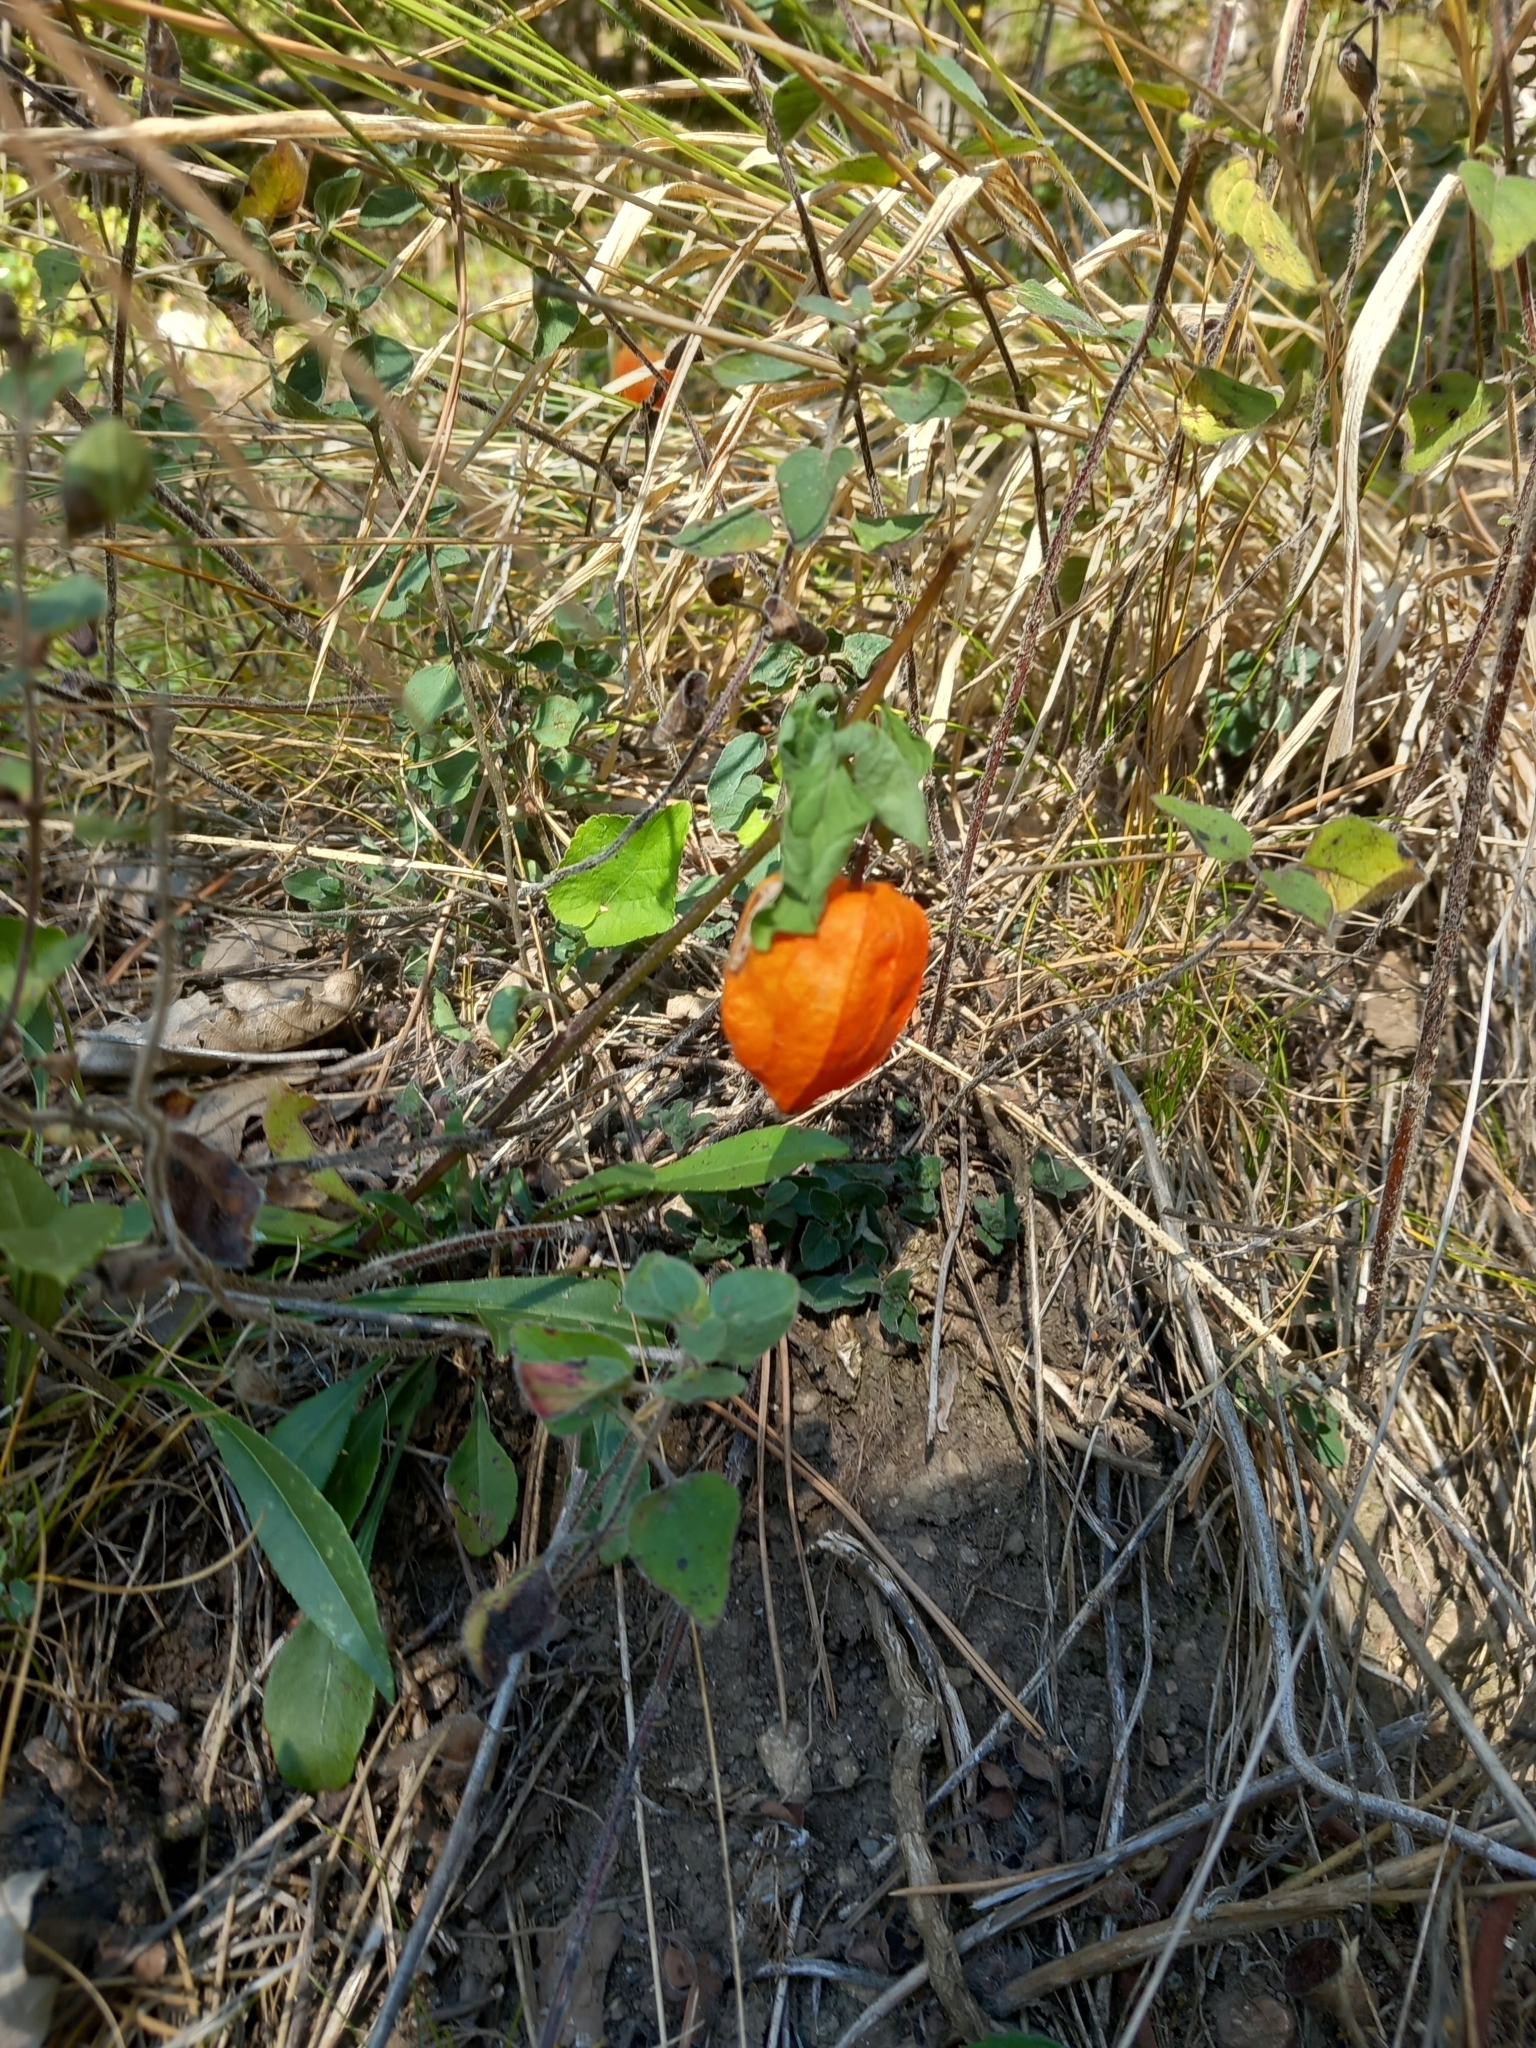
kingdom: Plantae
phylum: Tracheophyta
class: Magnoliopsida
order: Solanales
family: Solanaceae
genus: Alkekengi
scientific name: Alkekengi officinarum
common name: Japanese-lantern
